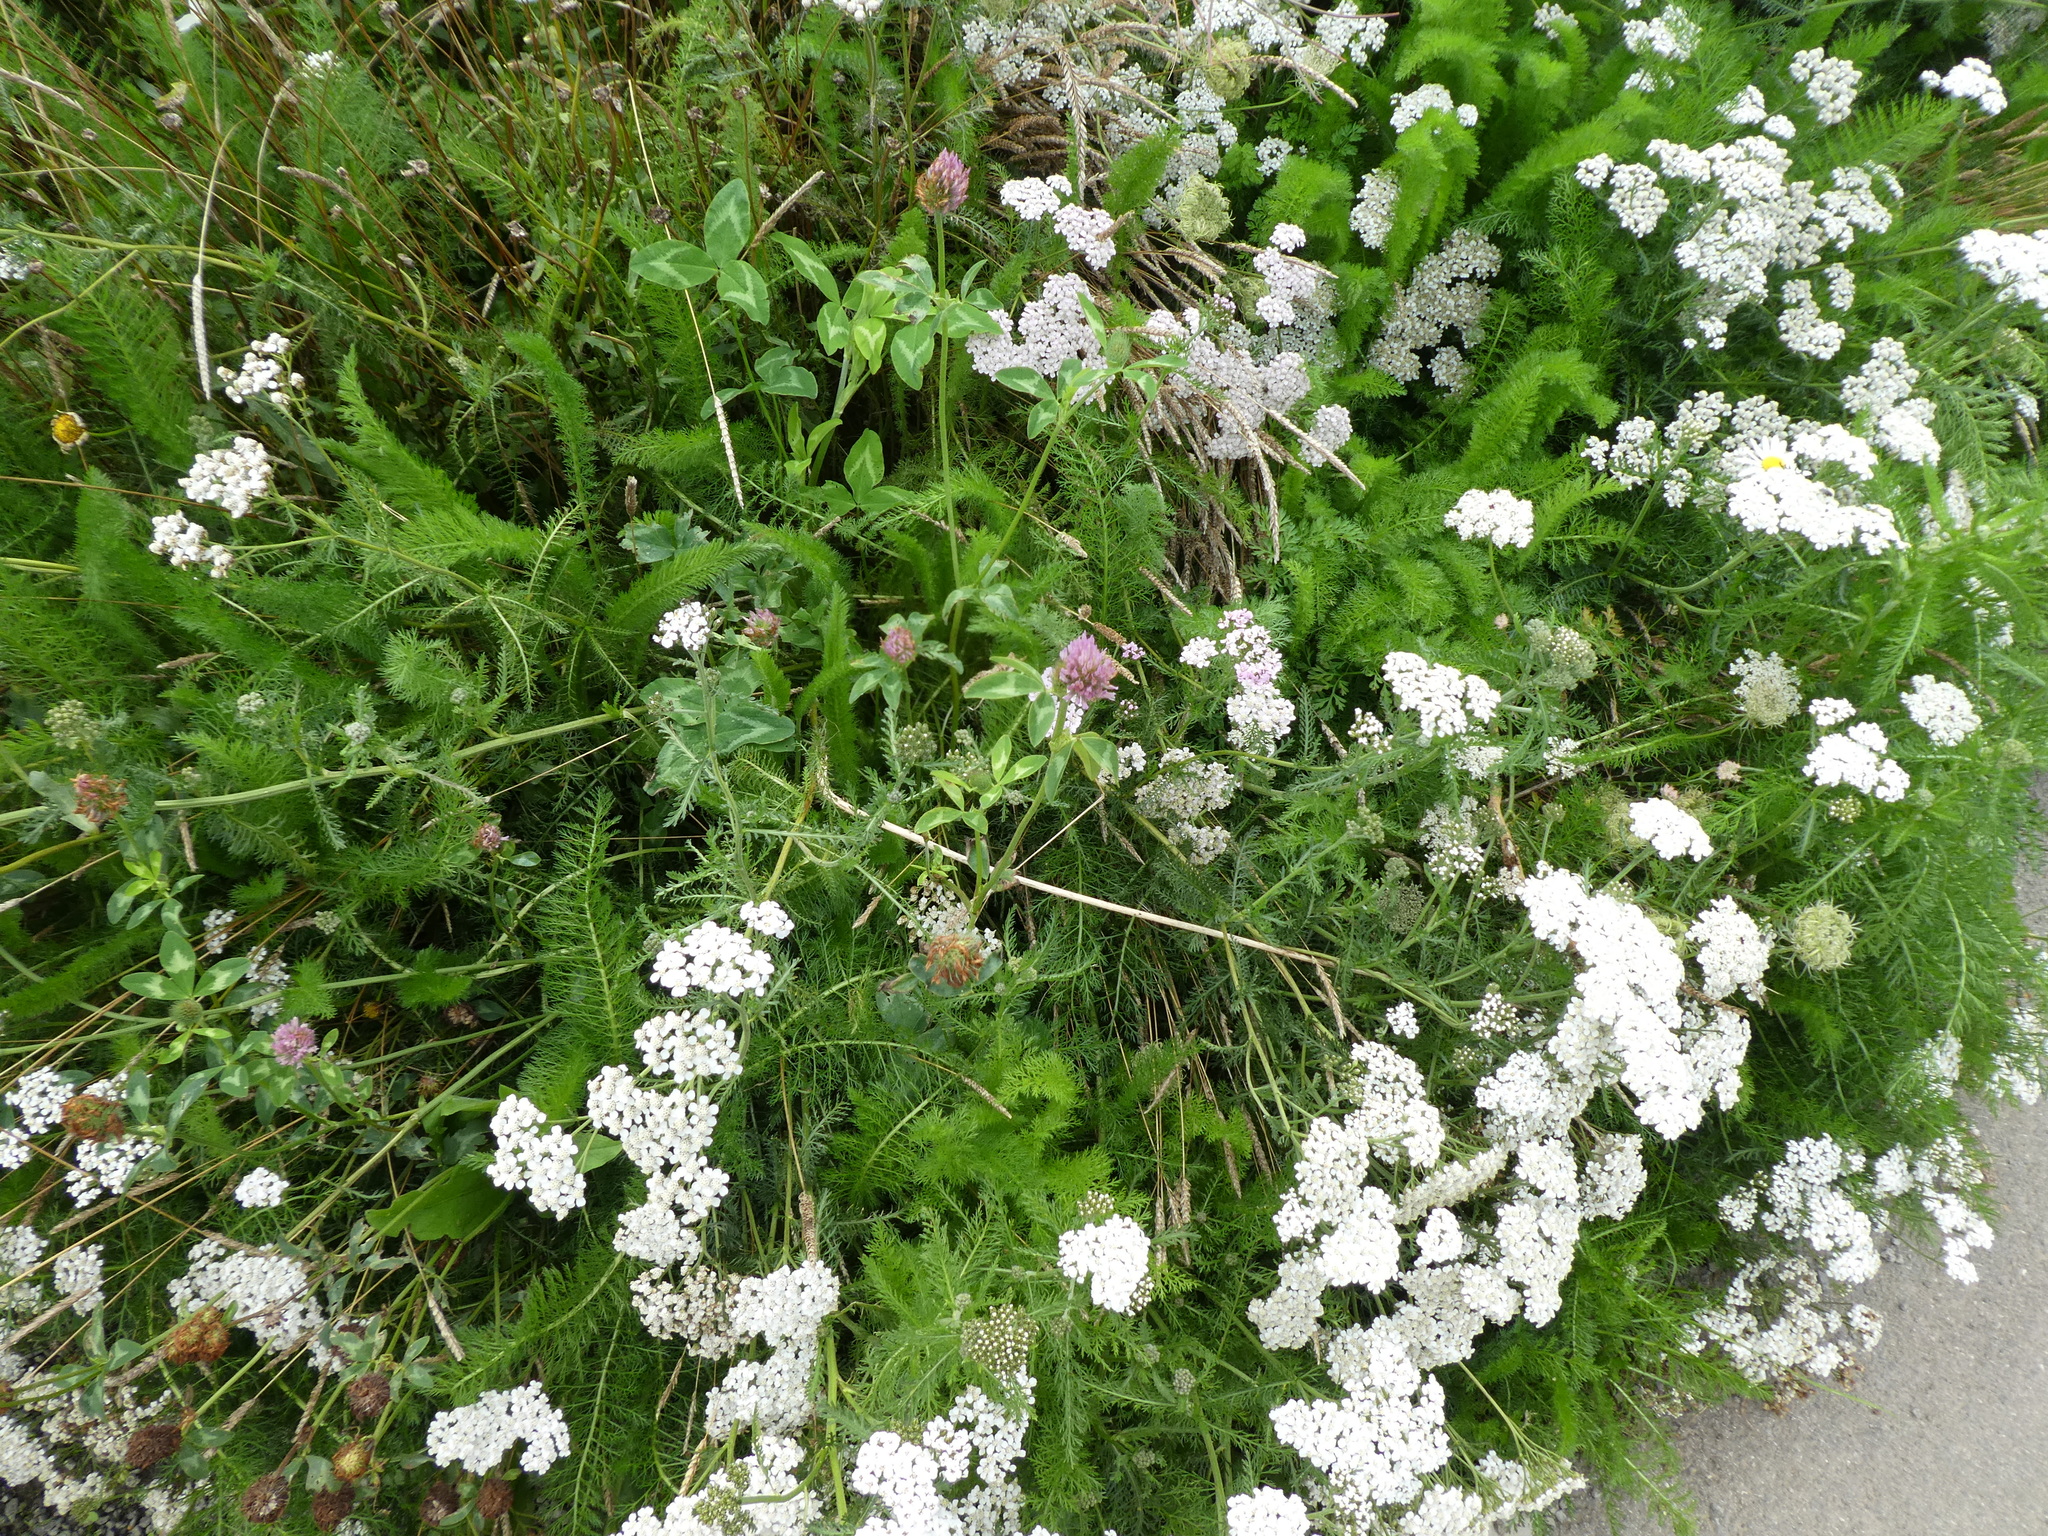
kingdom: Plantae
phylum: Tracheophyta
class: Magnoliopsida
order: Fabales
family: Fabaceae
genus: Trifolium
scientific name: Trifolium pratense
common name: Red clover
